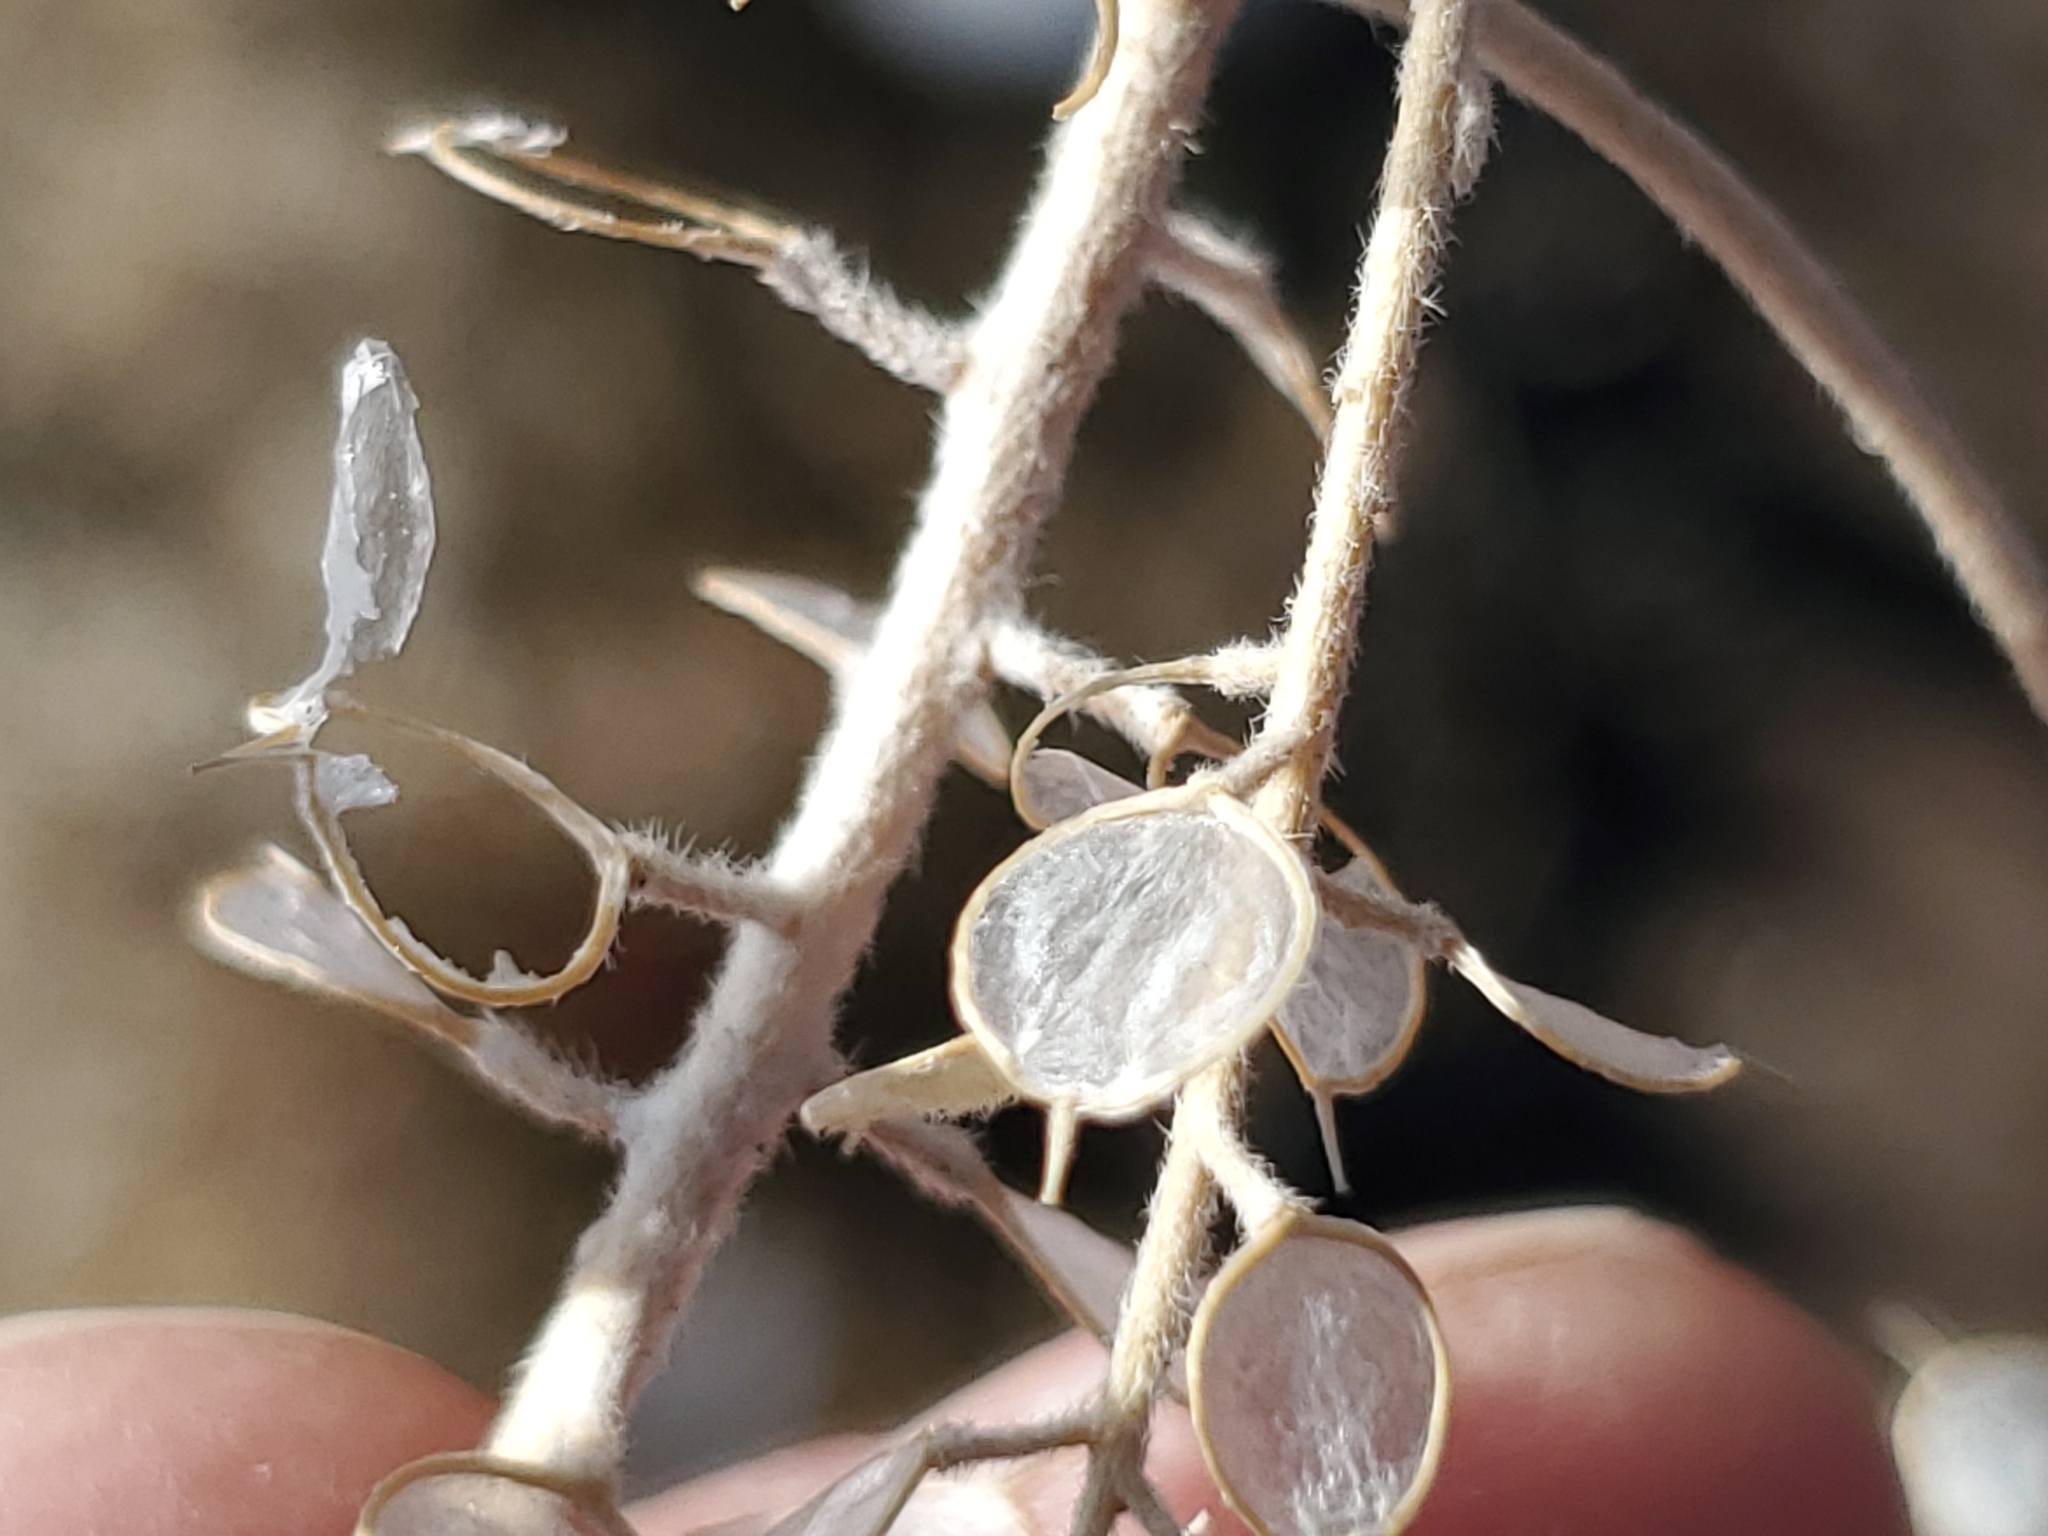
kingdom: Plantae
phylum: Tracheophyta
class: Magnoliopsida
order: Brassicales
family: Brassicaceae
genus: Alyssum
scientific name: Alyssum simplex
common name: Alyssum
